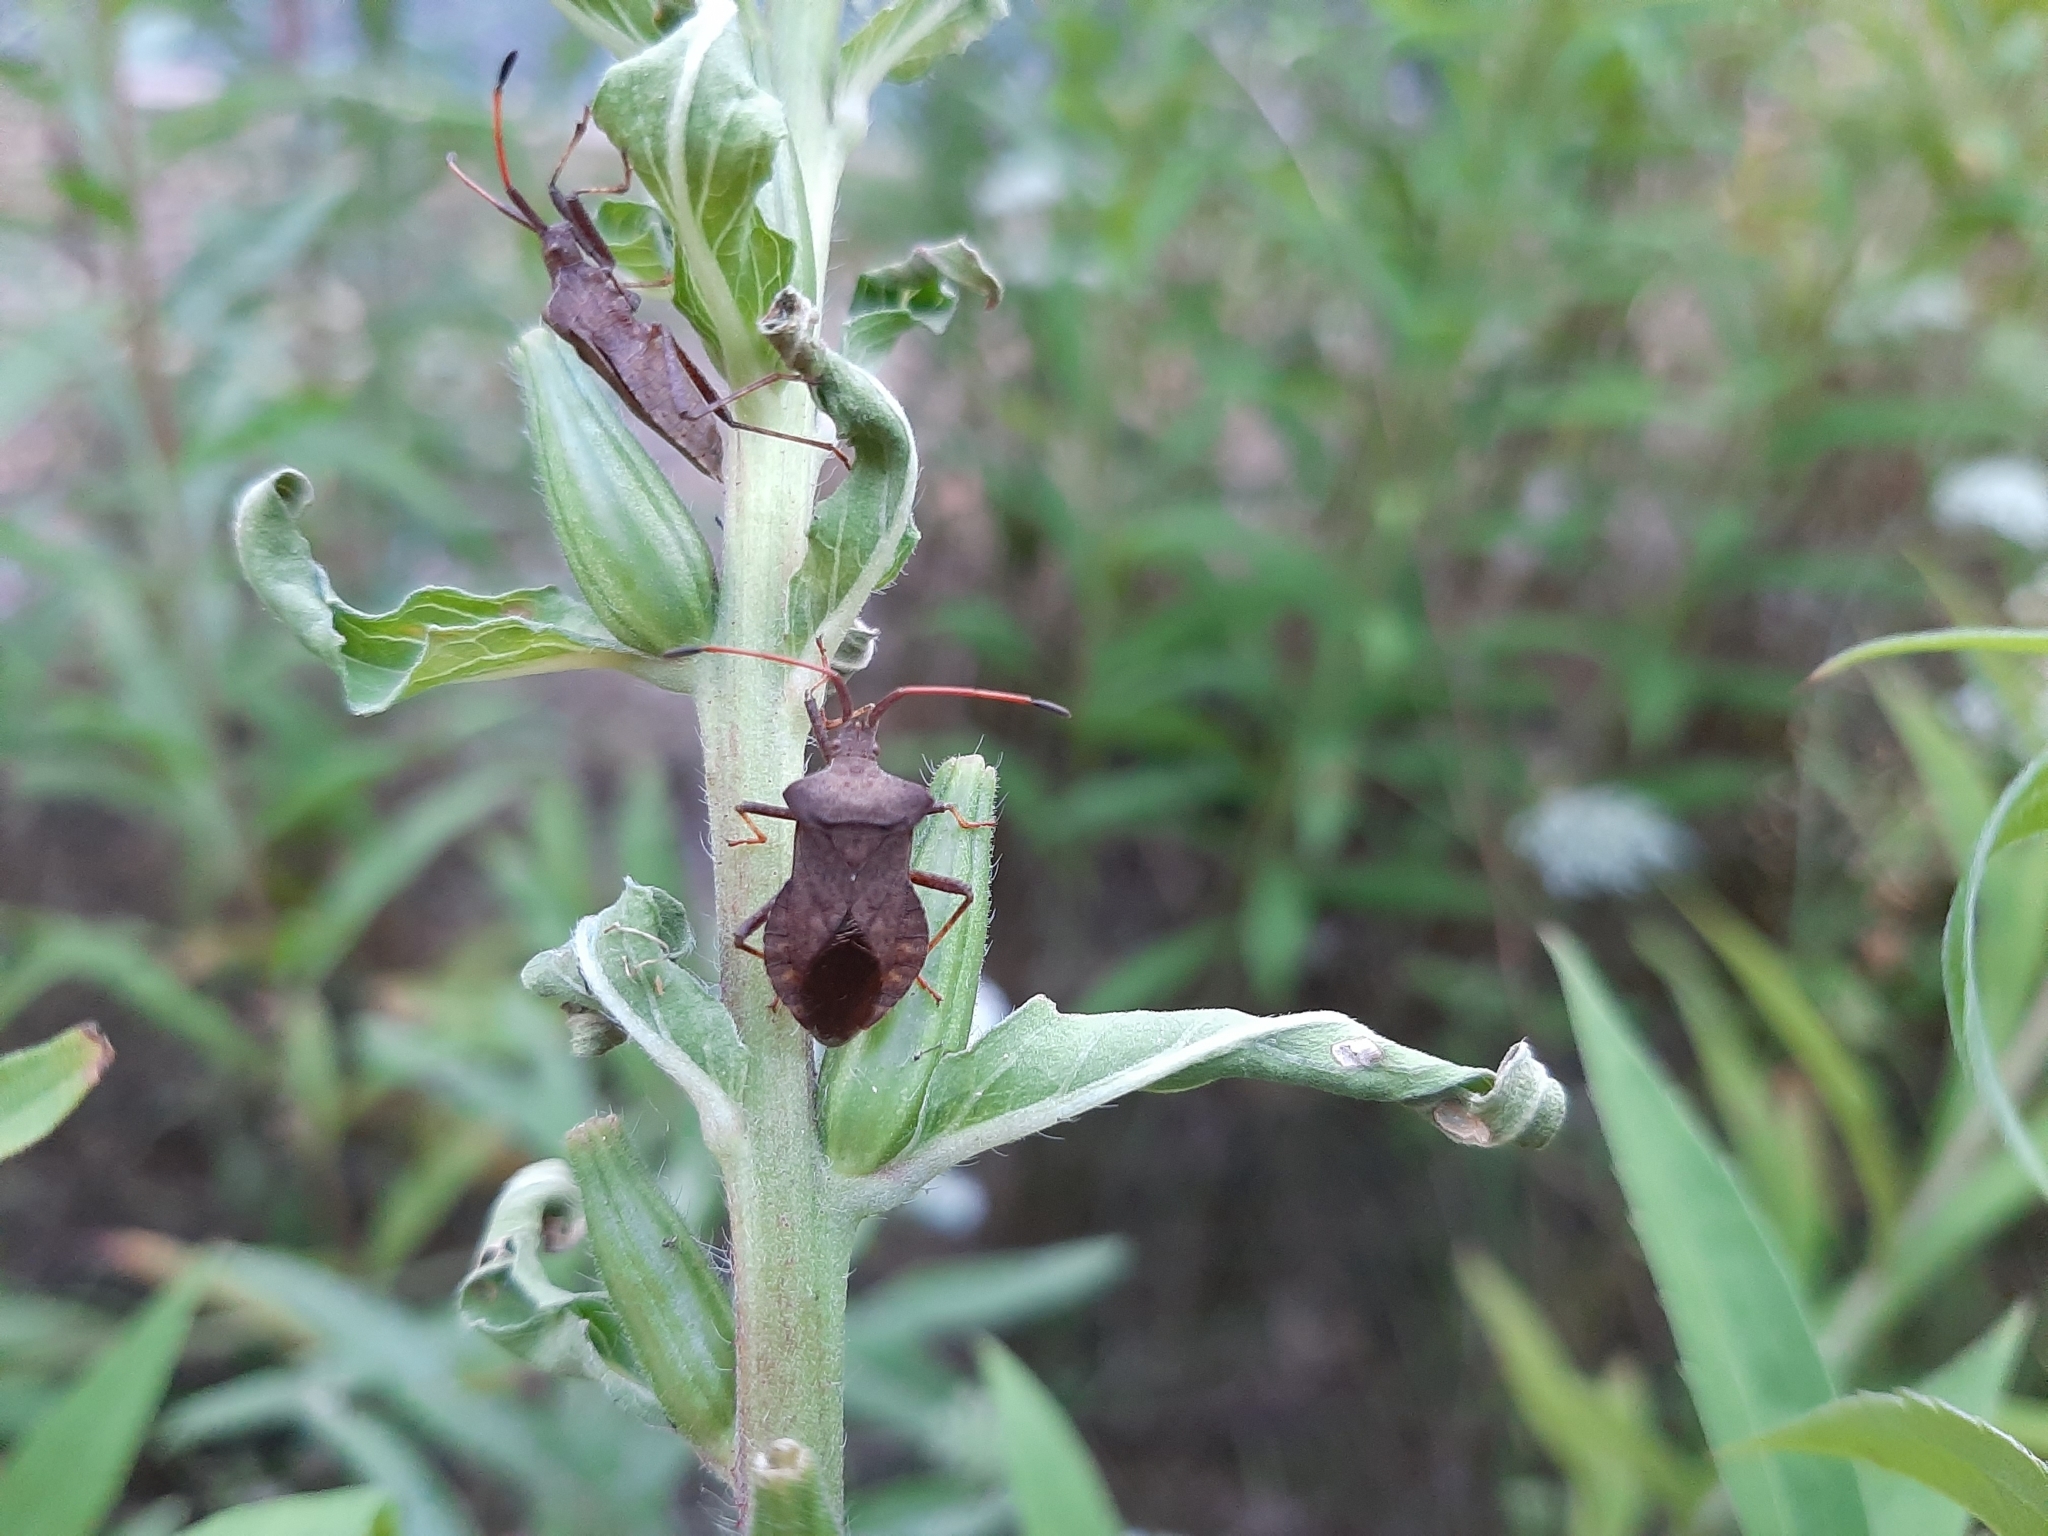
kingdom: Animalia
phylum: Arthropoda
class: Insecta
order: Hemiptera
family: Coreidae
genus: Coreus
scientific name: Coreus marginatus
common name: Dock bug
